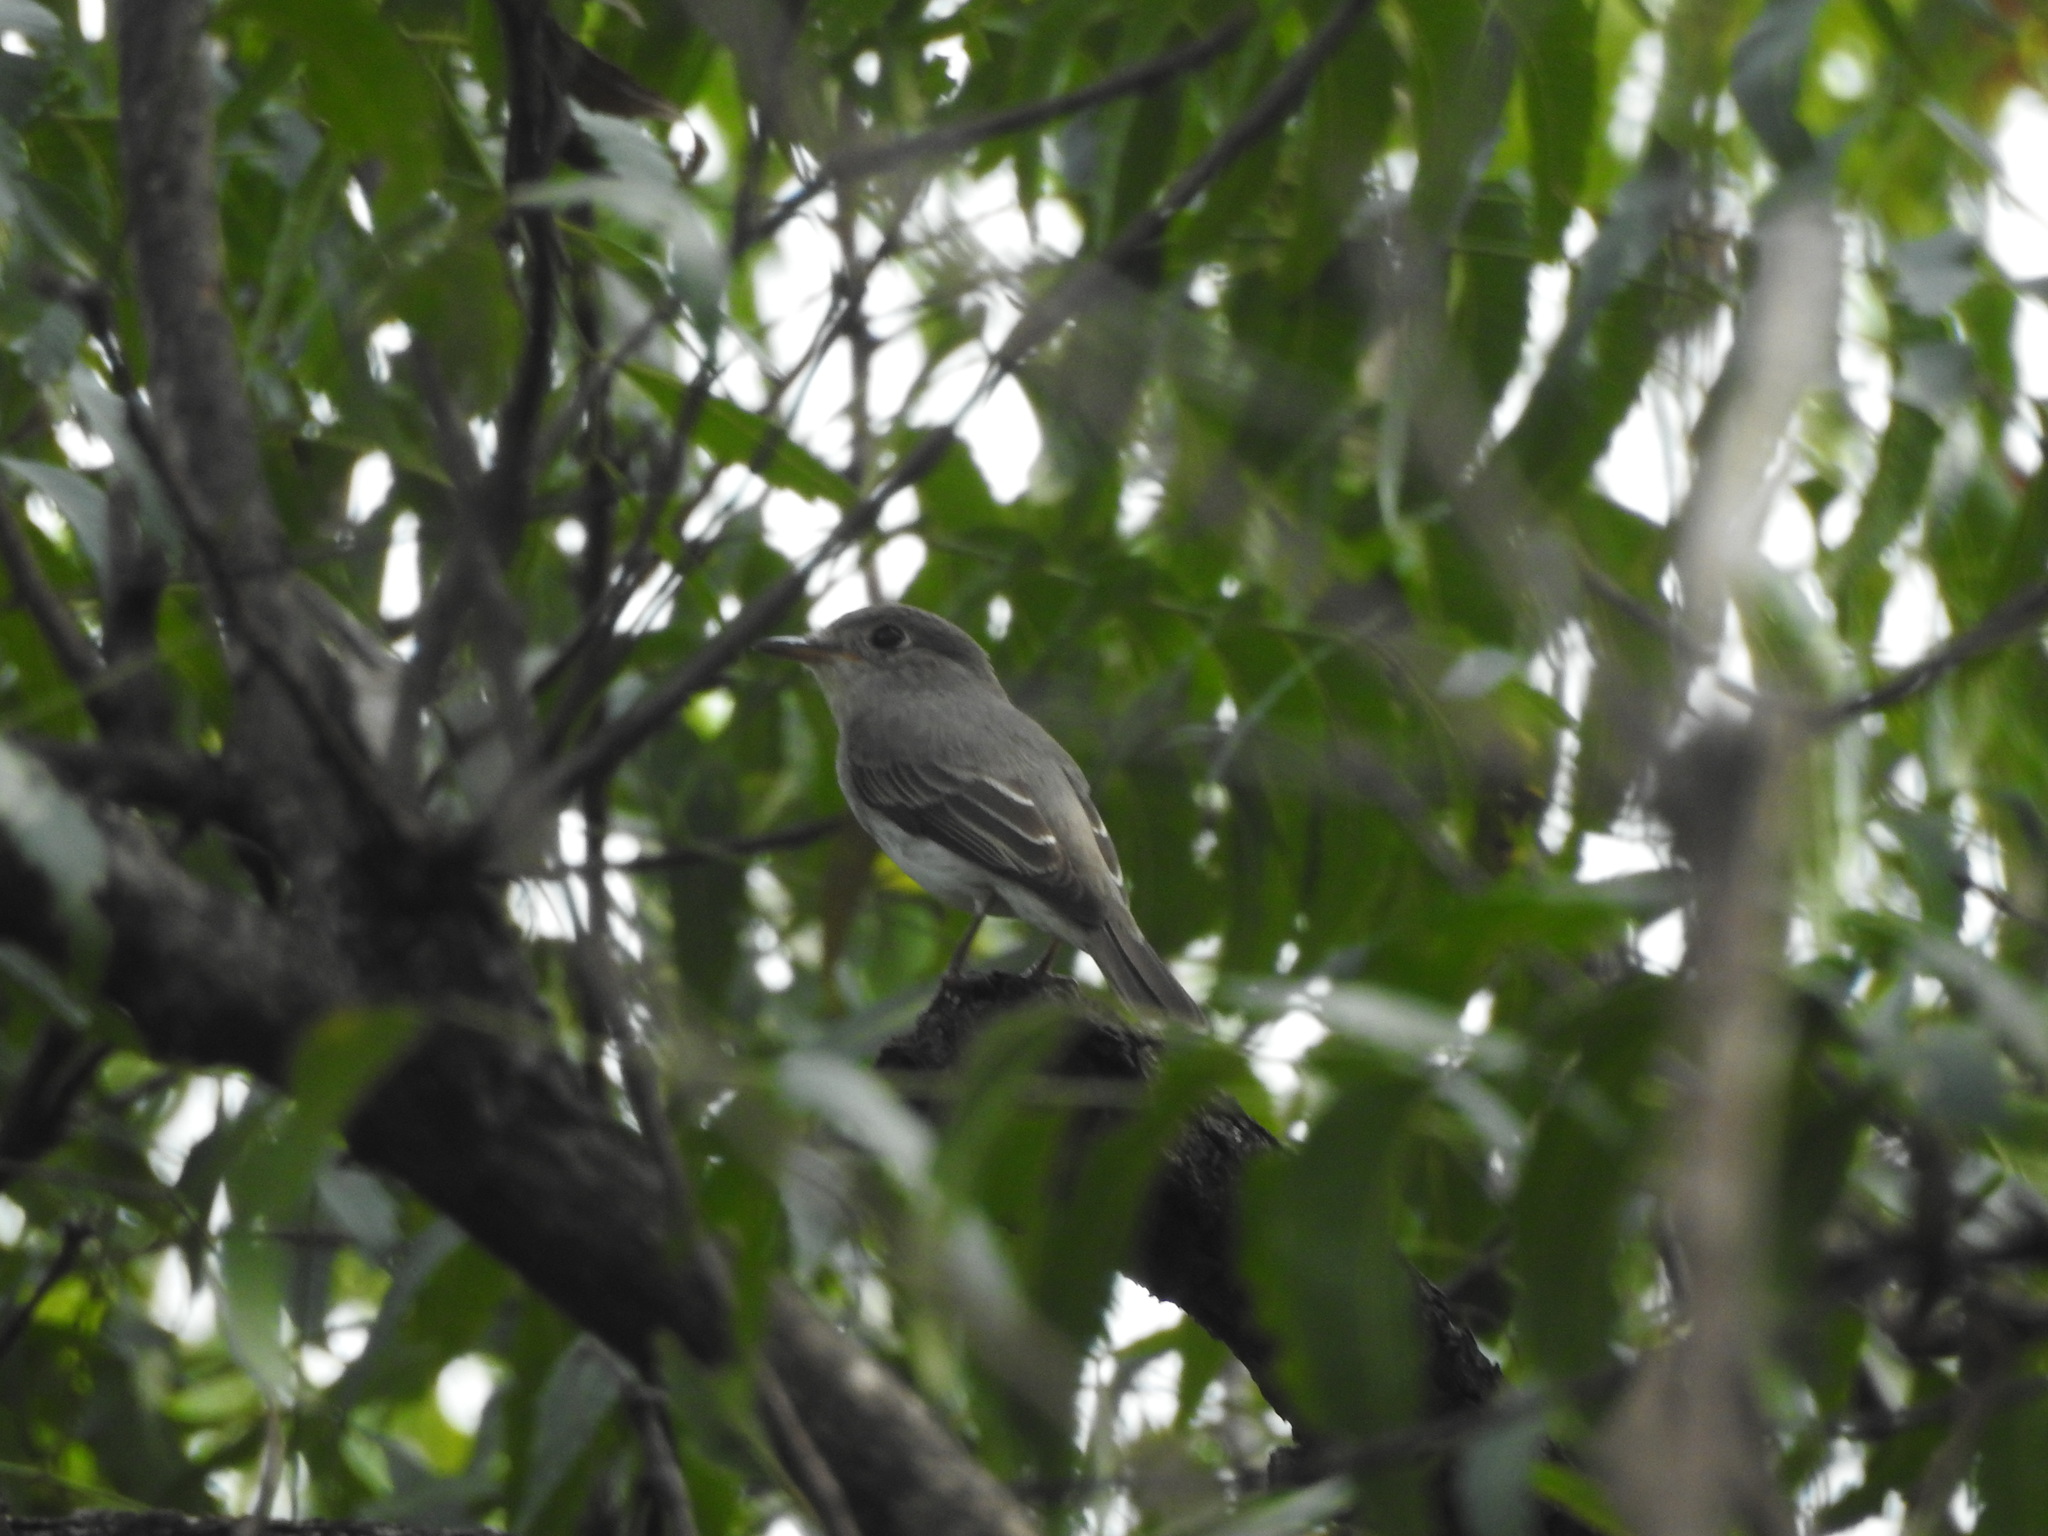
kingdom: Animalia
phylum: Chordata
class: Aves
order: Passeriformes
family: Muscicapidae
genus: Muscicapa
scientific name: Muscicapa latirostris
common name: Asian brown flycatcher
